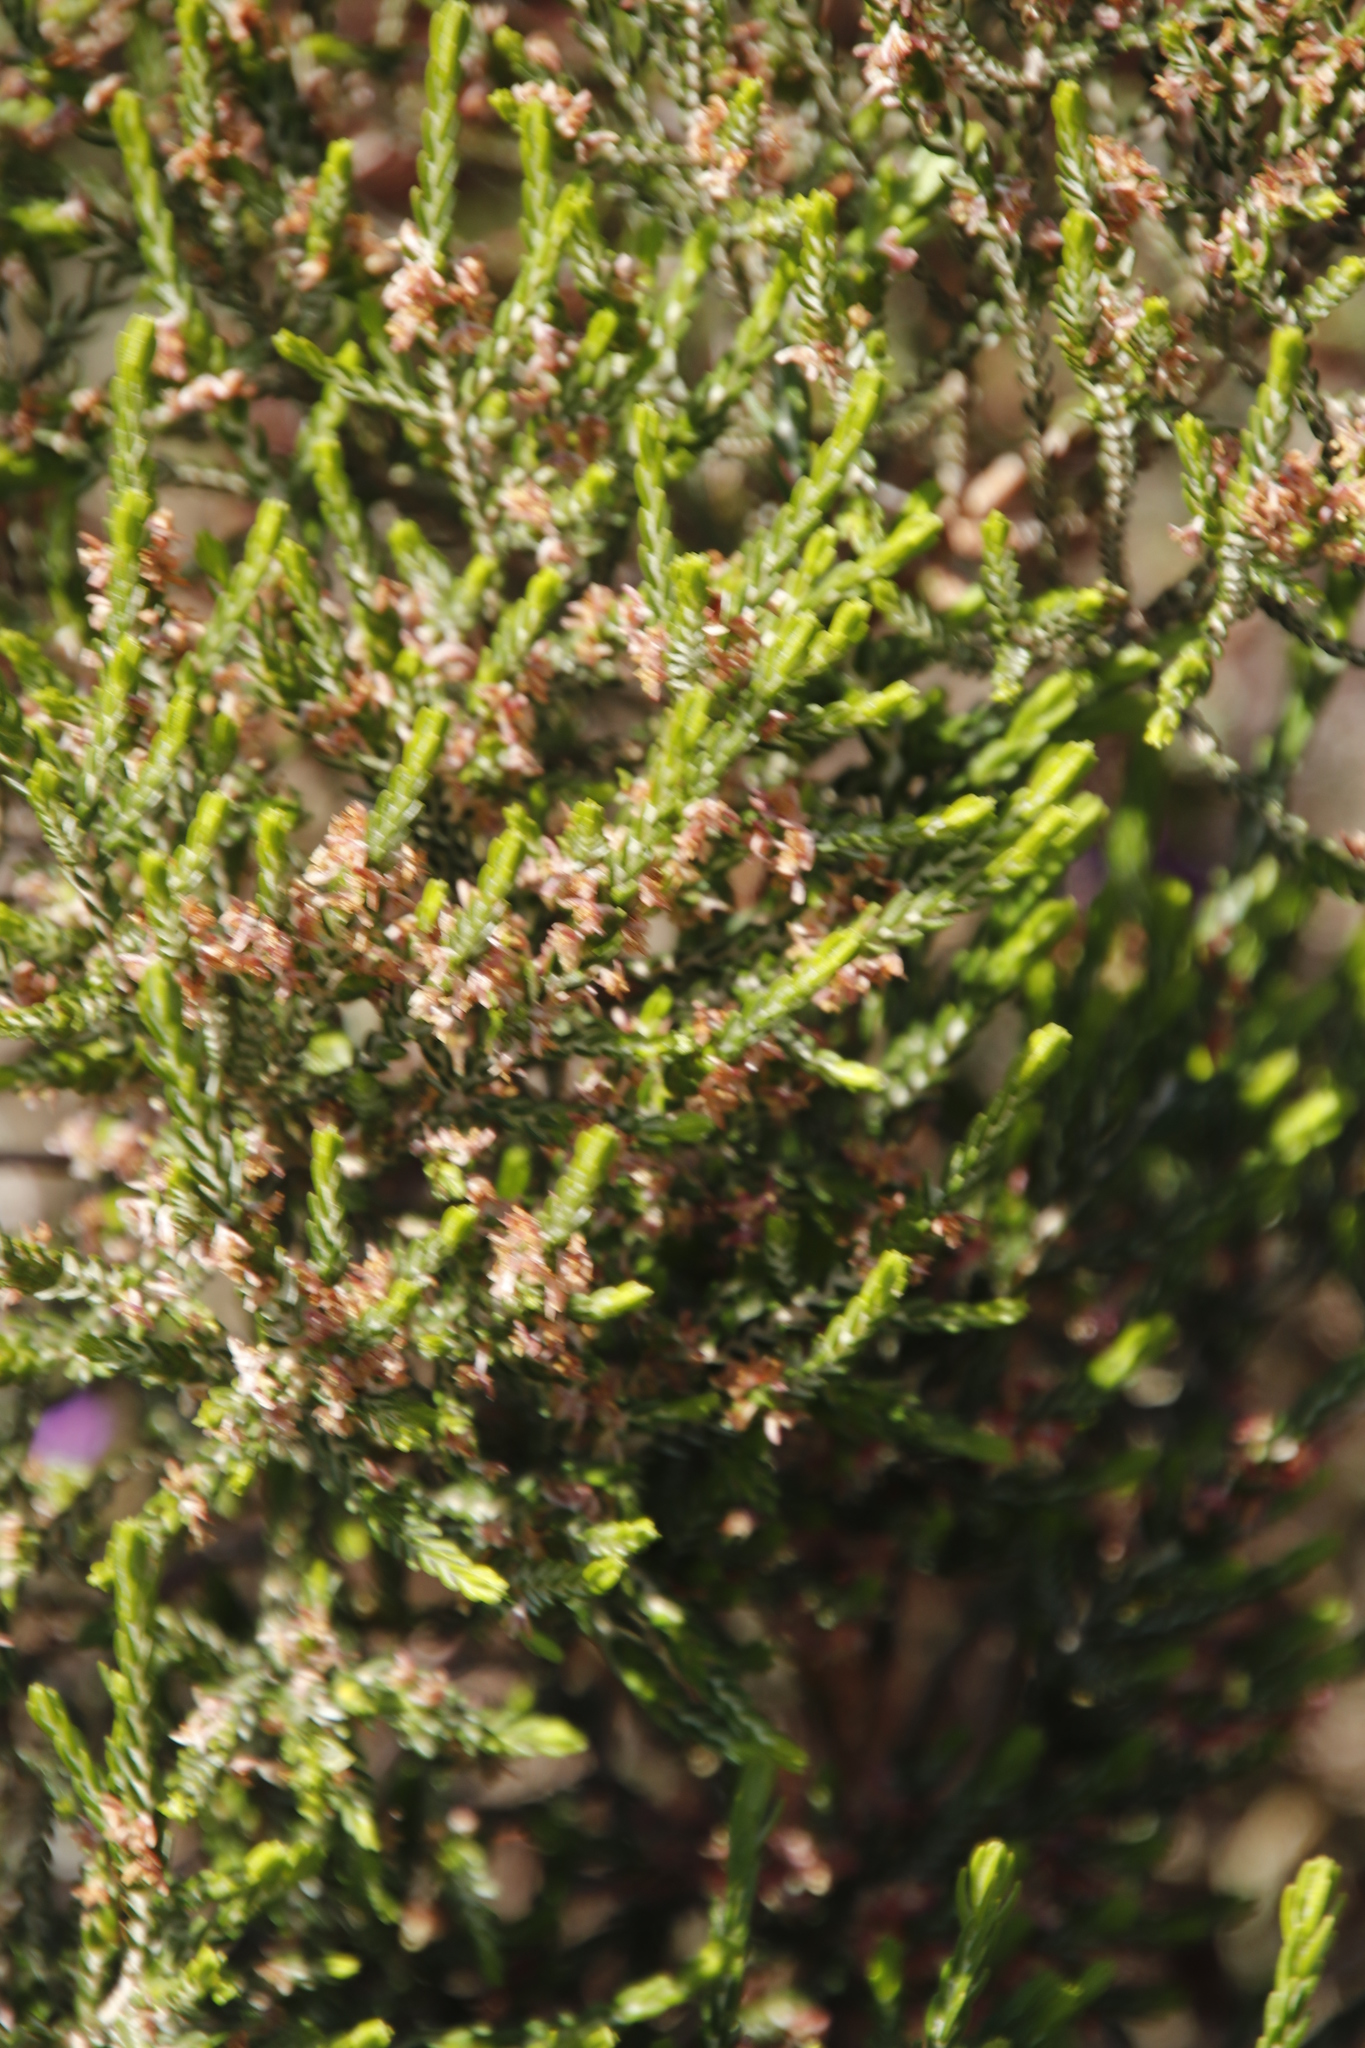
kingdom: Plantae
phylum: Tracheophyta
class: Magnoliopsida
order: Malvales
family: Thymelaeaceae
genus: Passerina
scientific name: Passerina corymbosa
